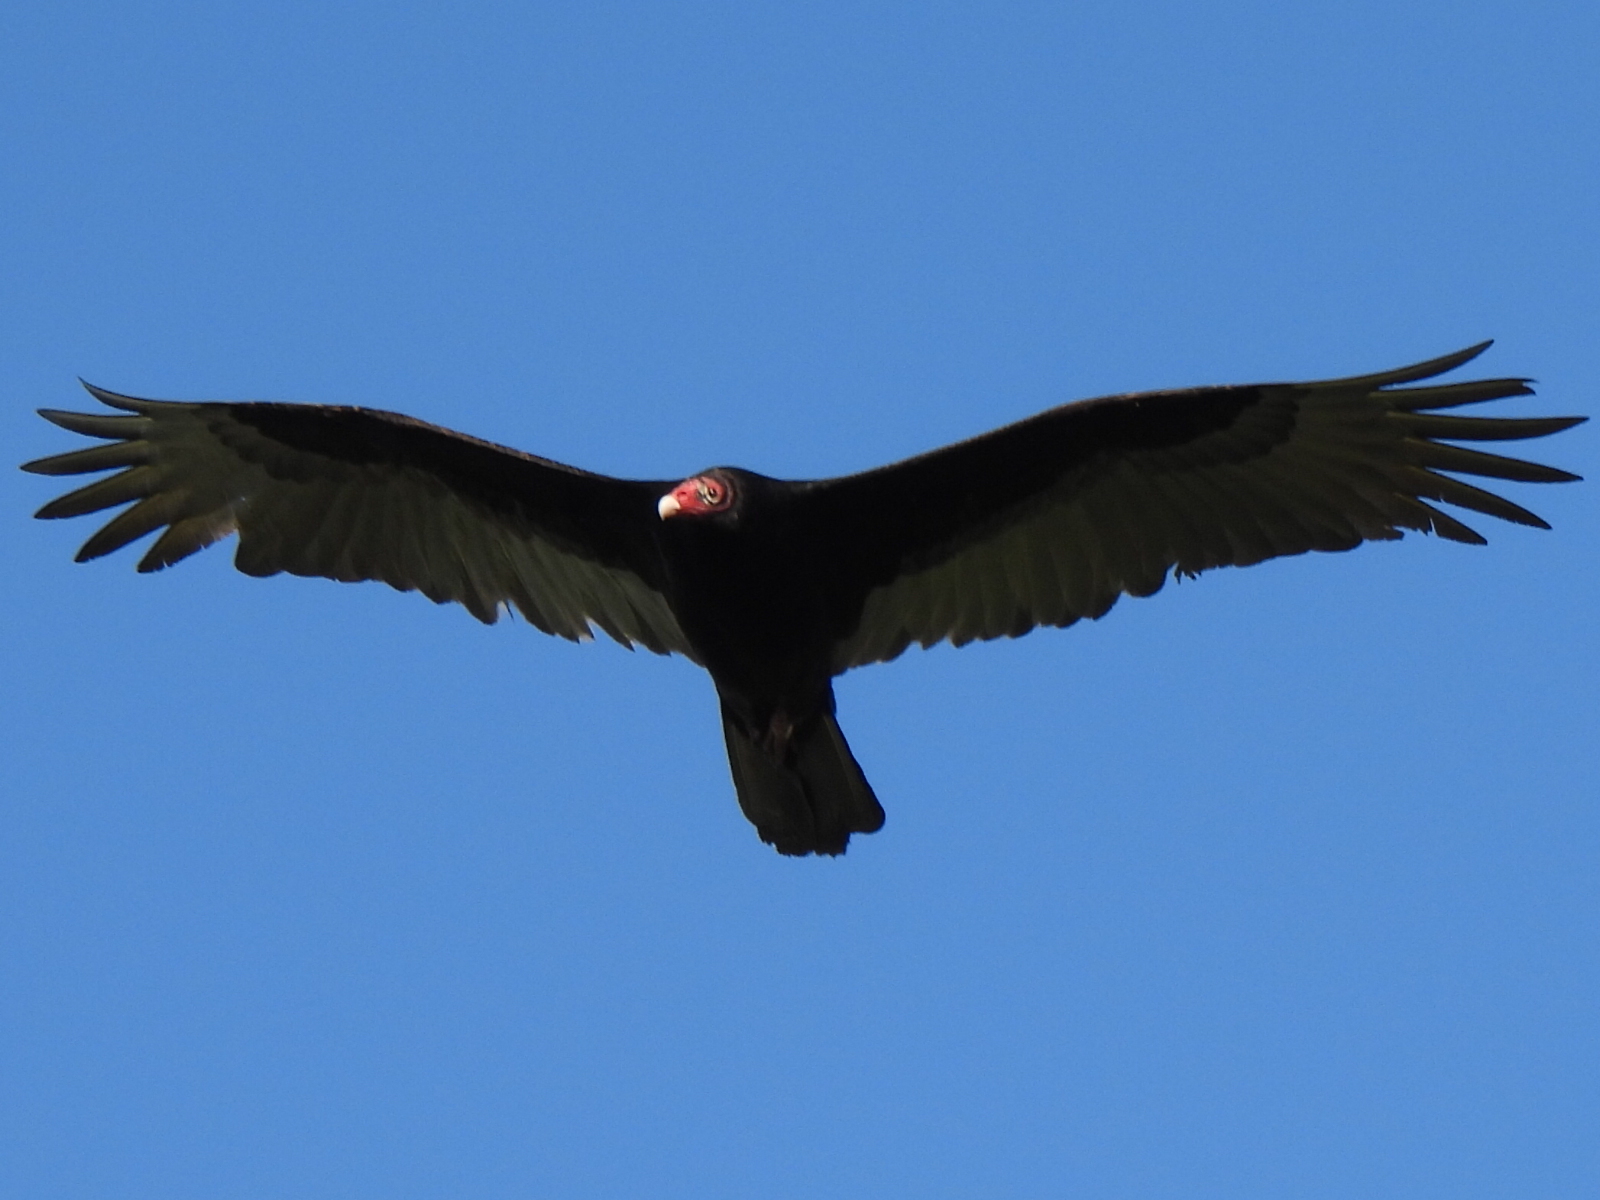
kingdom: Animalia
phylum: Chordata
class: Aves
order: Accipitriformes
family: Cathartidae
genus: Cathartes
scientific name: Cathartes aura
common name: Turkey vulture
